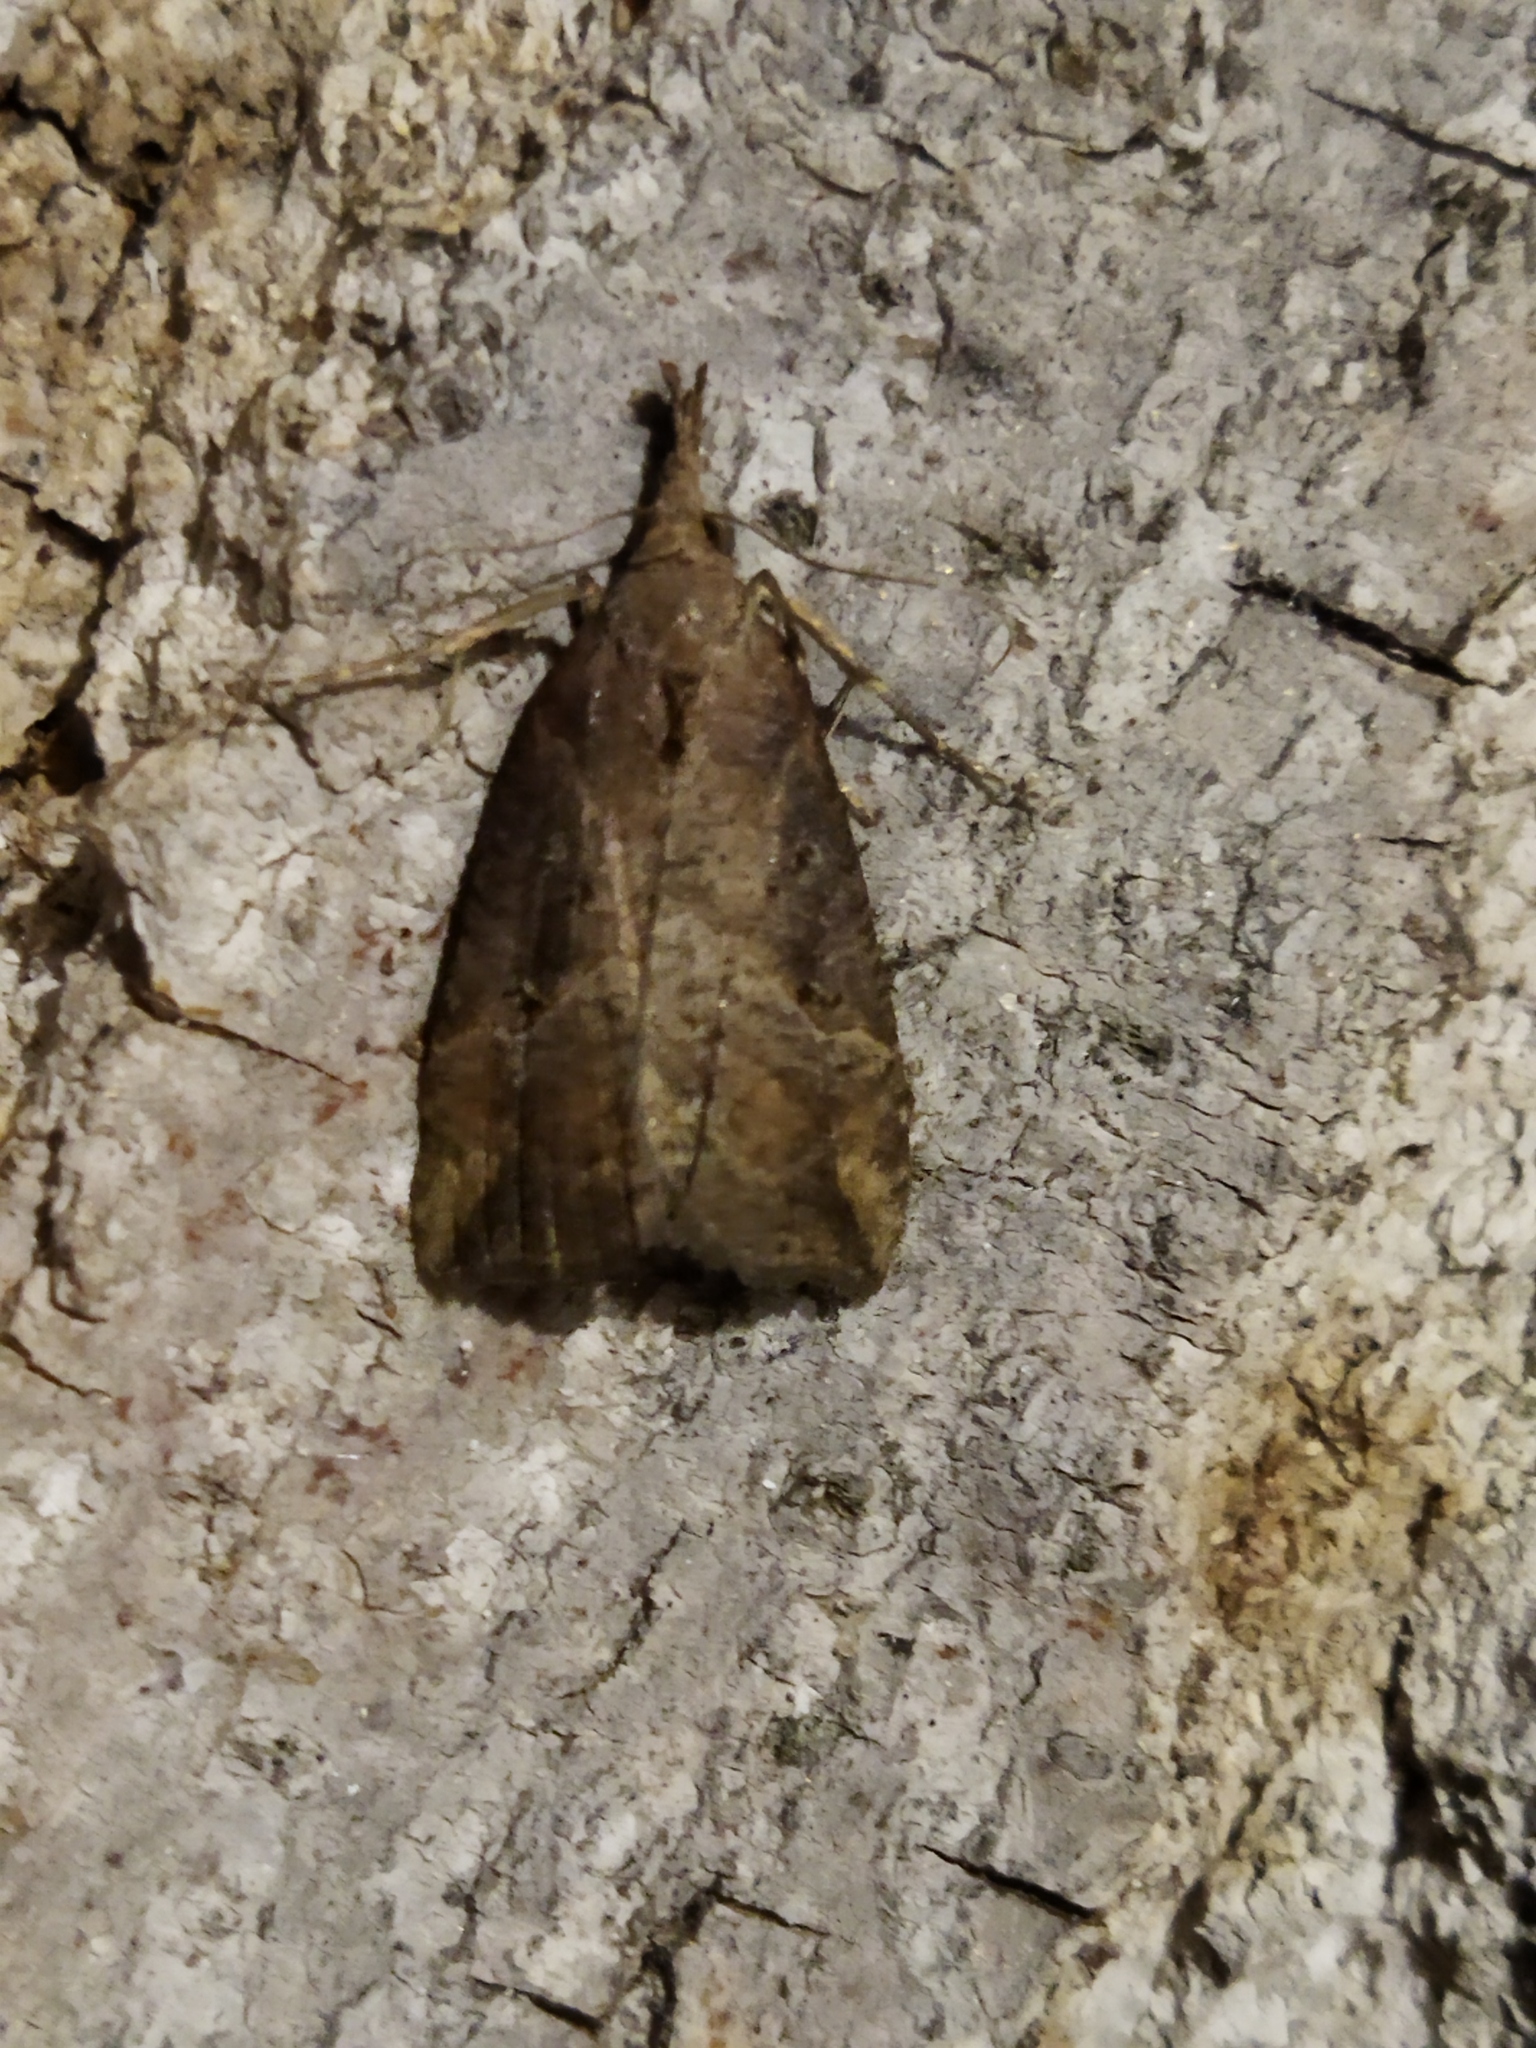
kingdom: Animalia
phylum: Arthropoda
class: Insecta
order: Lepidoptera
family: Erebidae
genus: Hypena
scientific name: Hypena rostralis
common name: Buttoned snout
